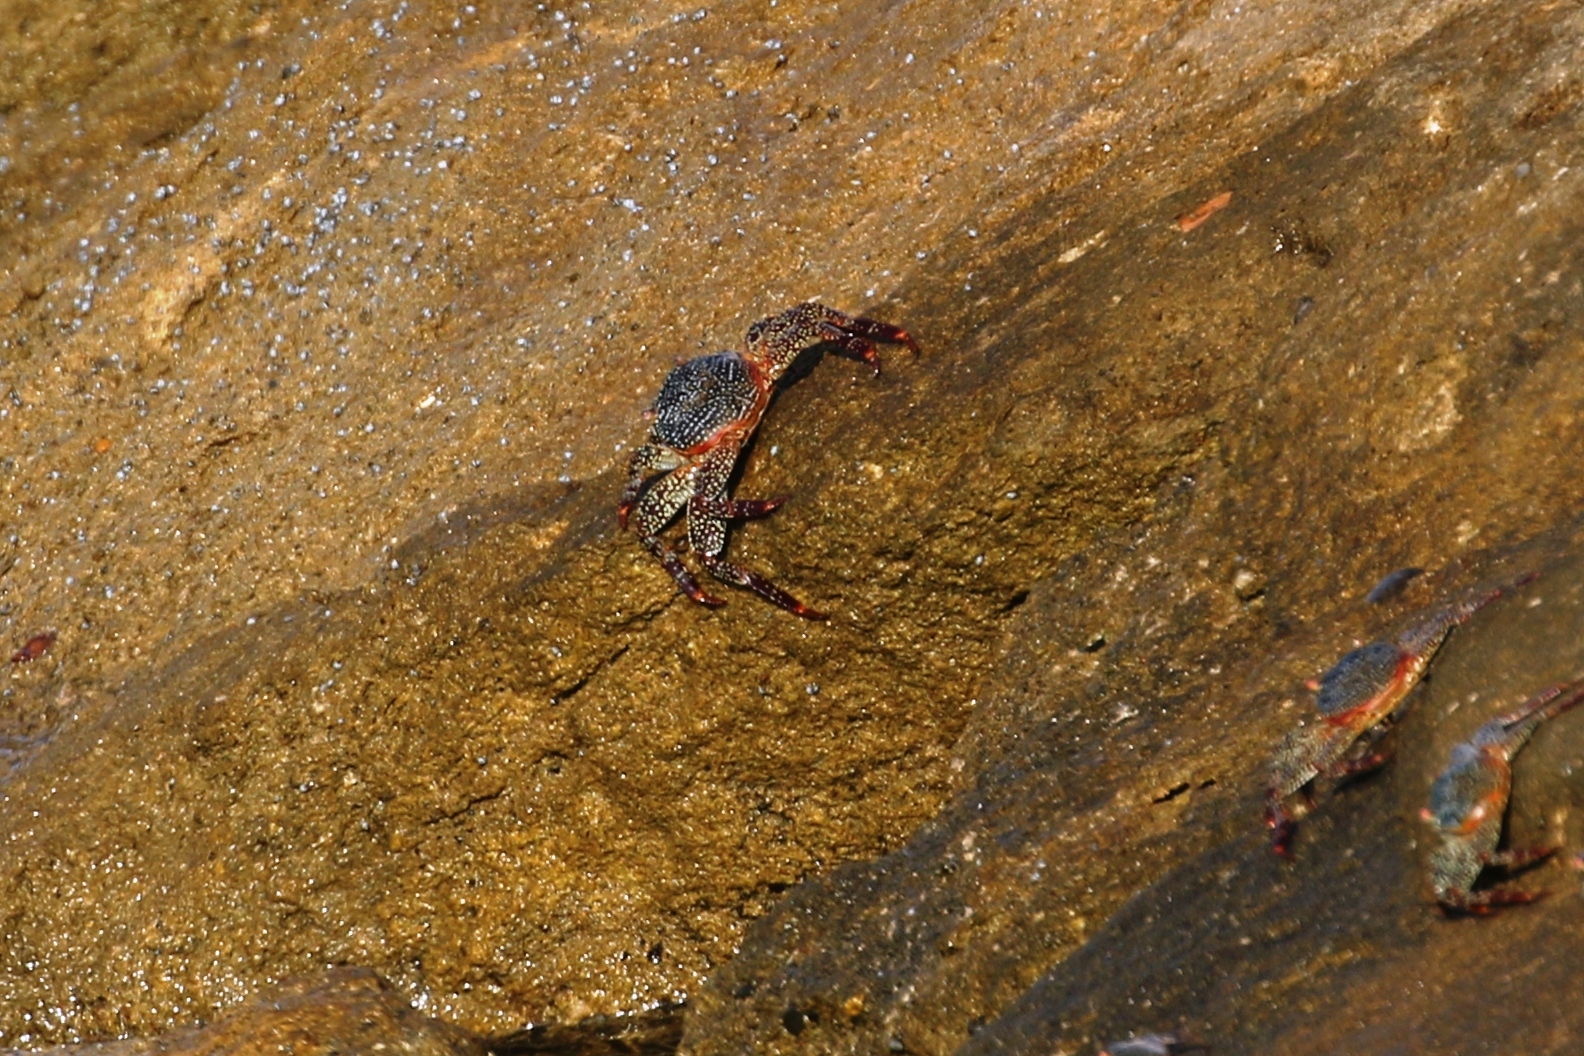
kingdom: Animalia
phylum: Arthropoda
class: Malacostraca
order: Decapoda
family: Grapsidae
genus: Grapsus
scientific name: Grapsus grapsus
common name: Sally lightfoot
